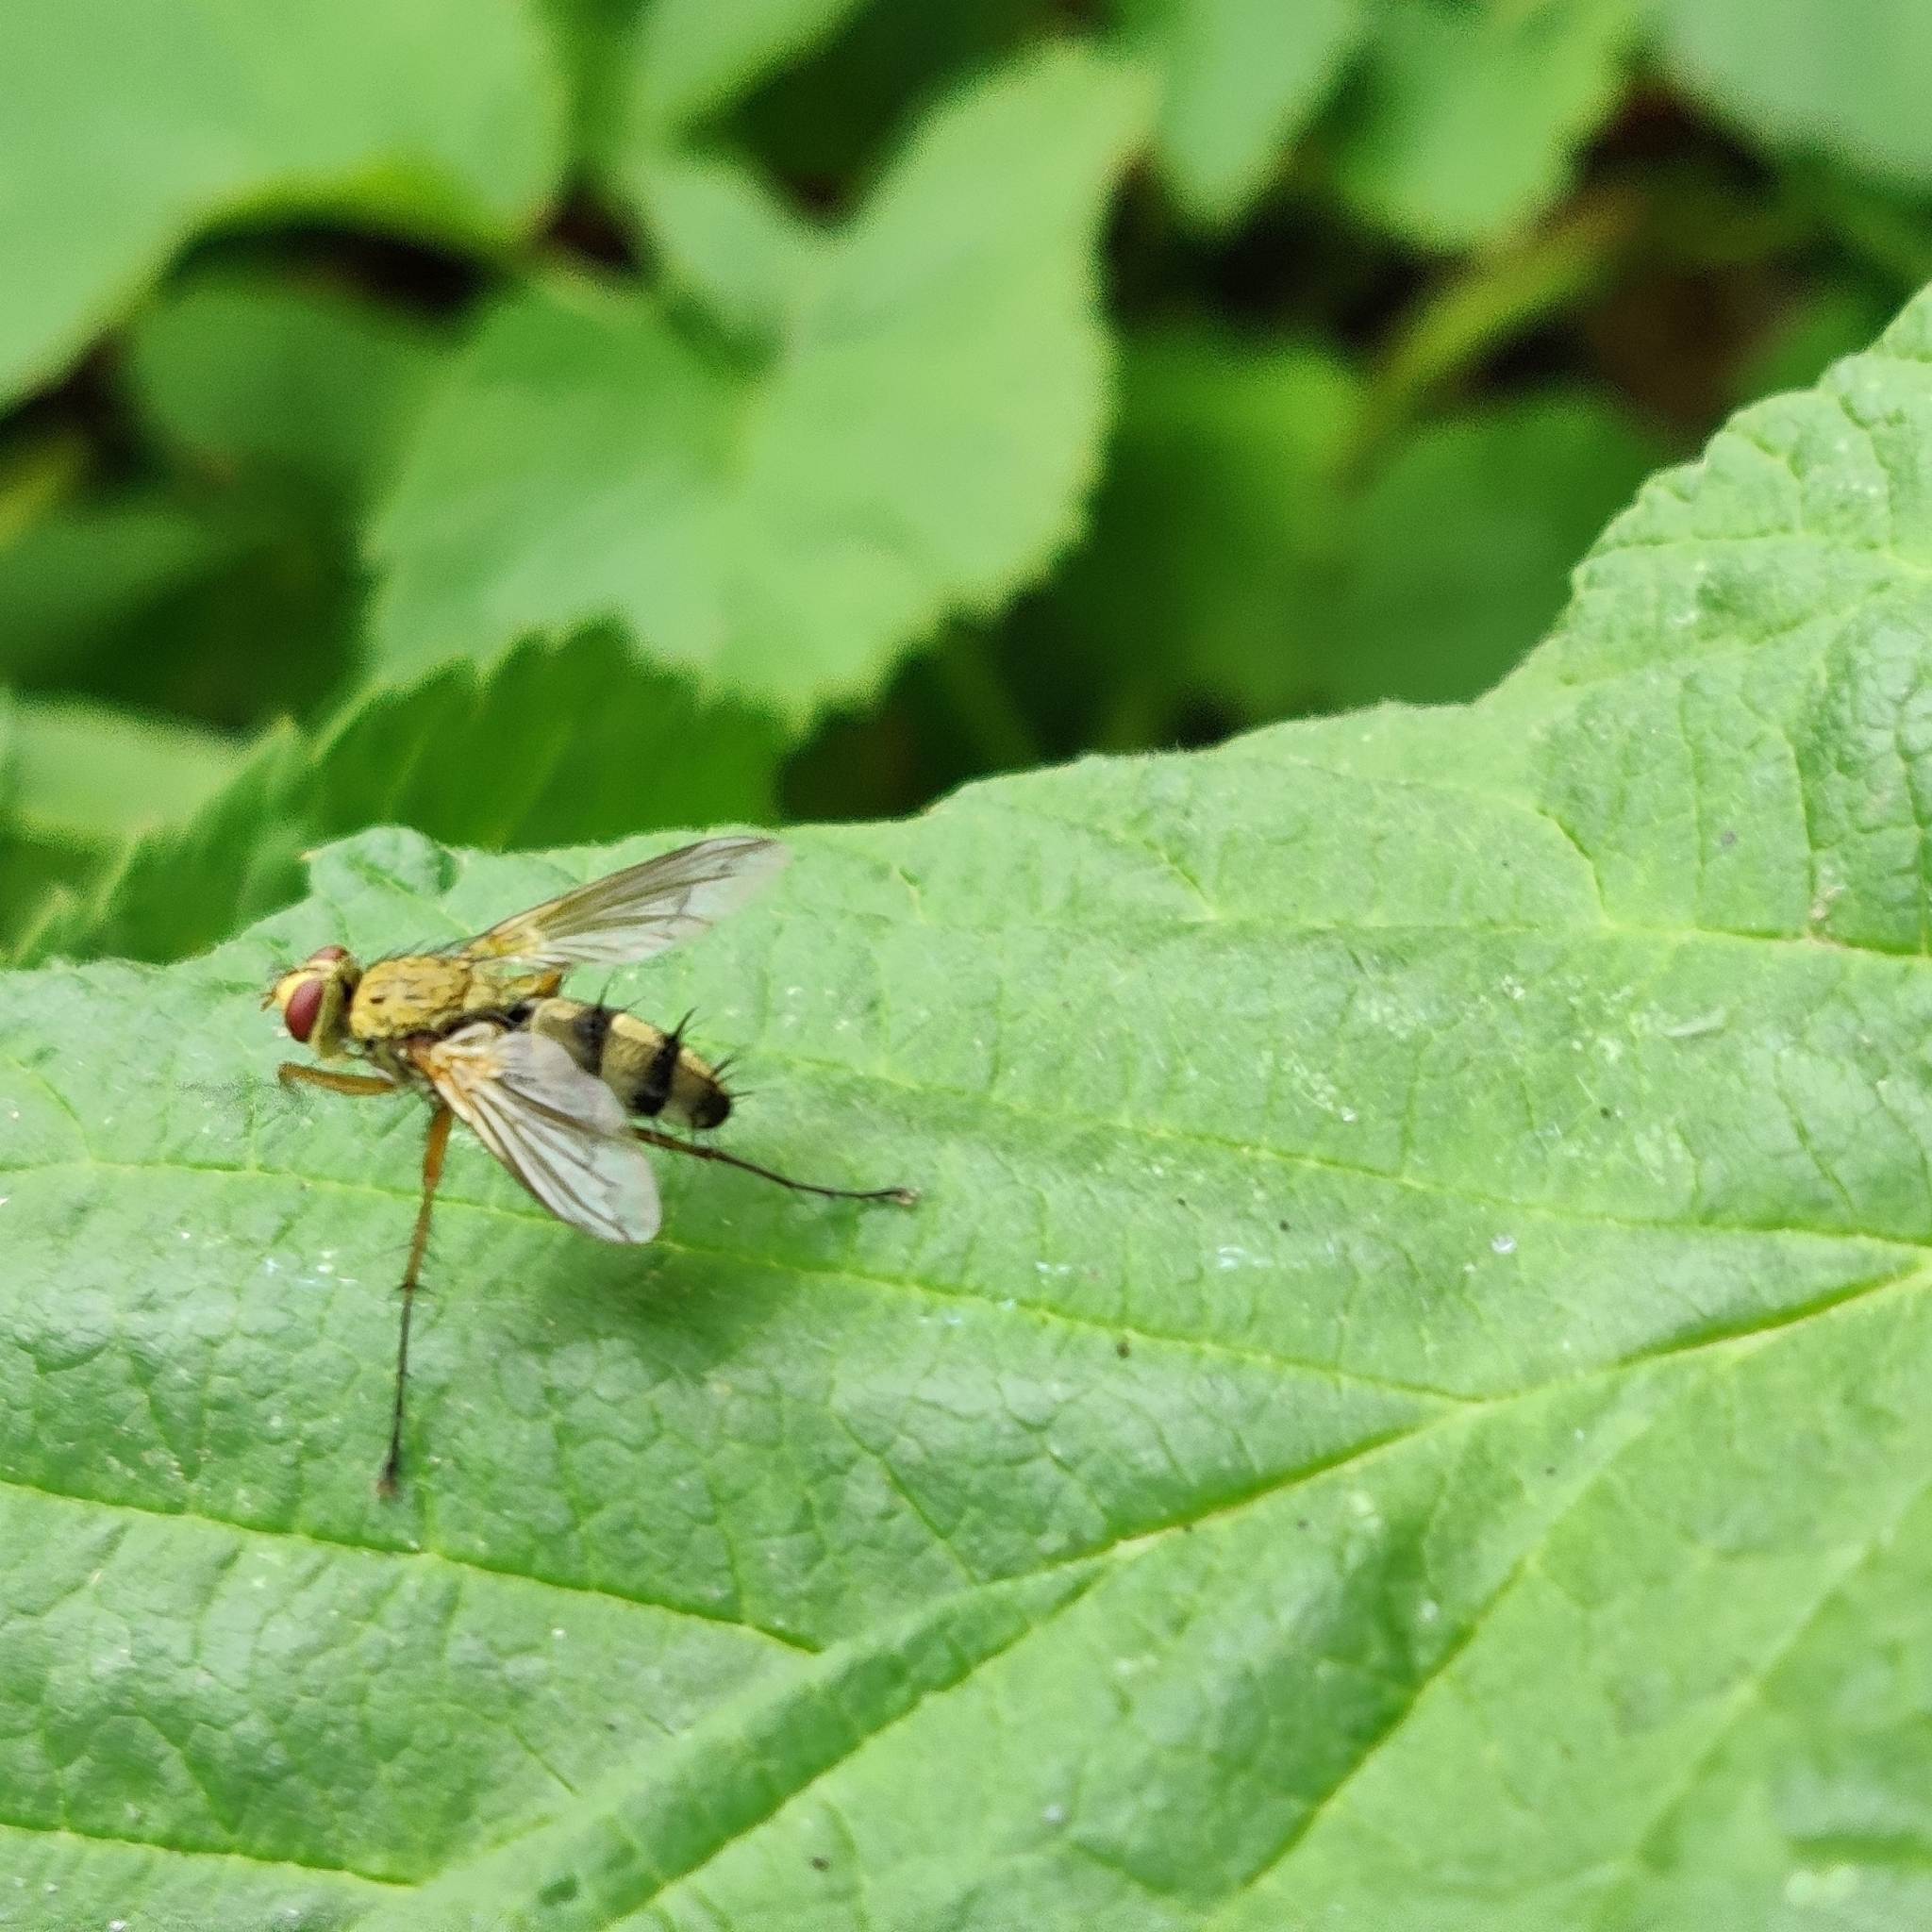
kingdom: Animalia
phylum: Arthropoda
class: Insecta
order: Diptera
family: Tachinidae
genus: Dexiosoma
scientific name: Dexiosoma caninum
